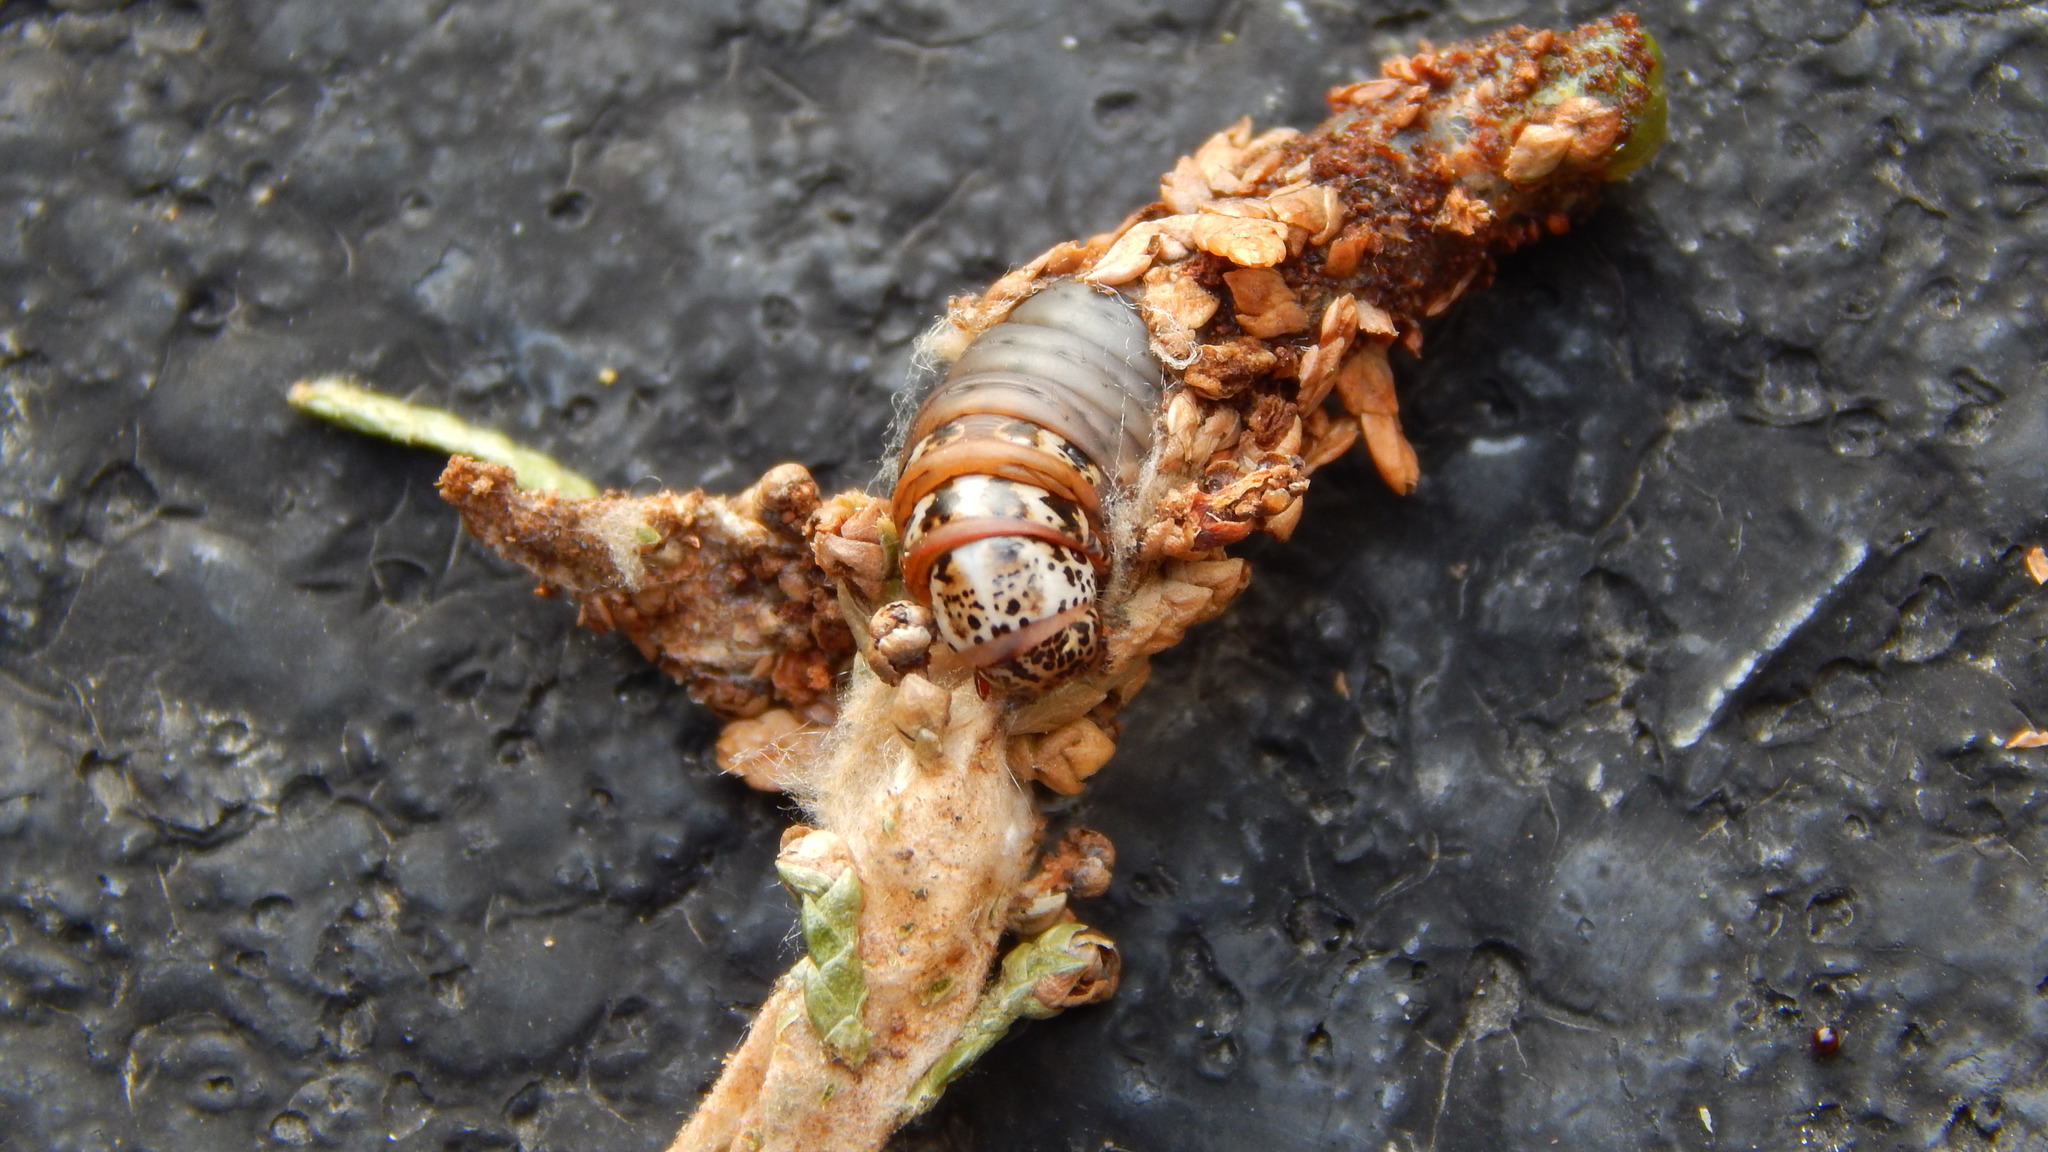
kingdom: Animalia
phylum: Arthropoda
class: Insecta
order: Lepidoptera
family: Psychidae
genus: Thyridopteryx
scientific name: Thyridopteryx ephemeraeformis
